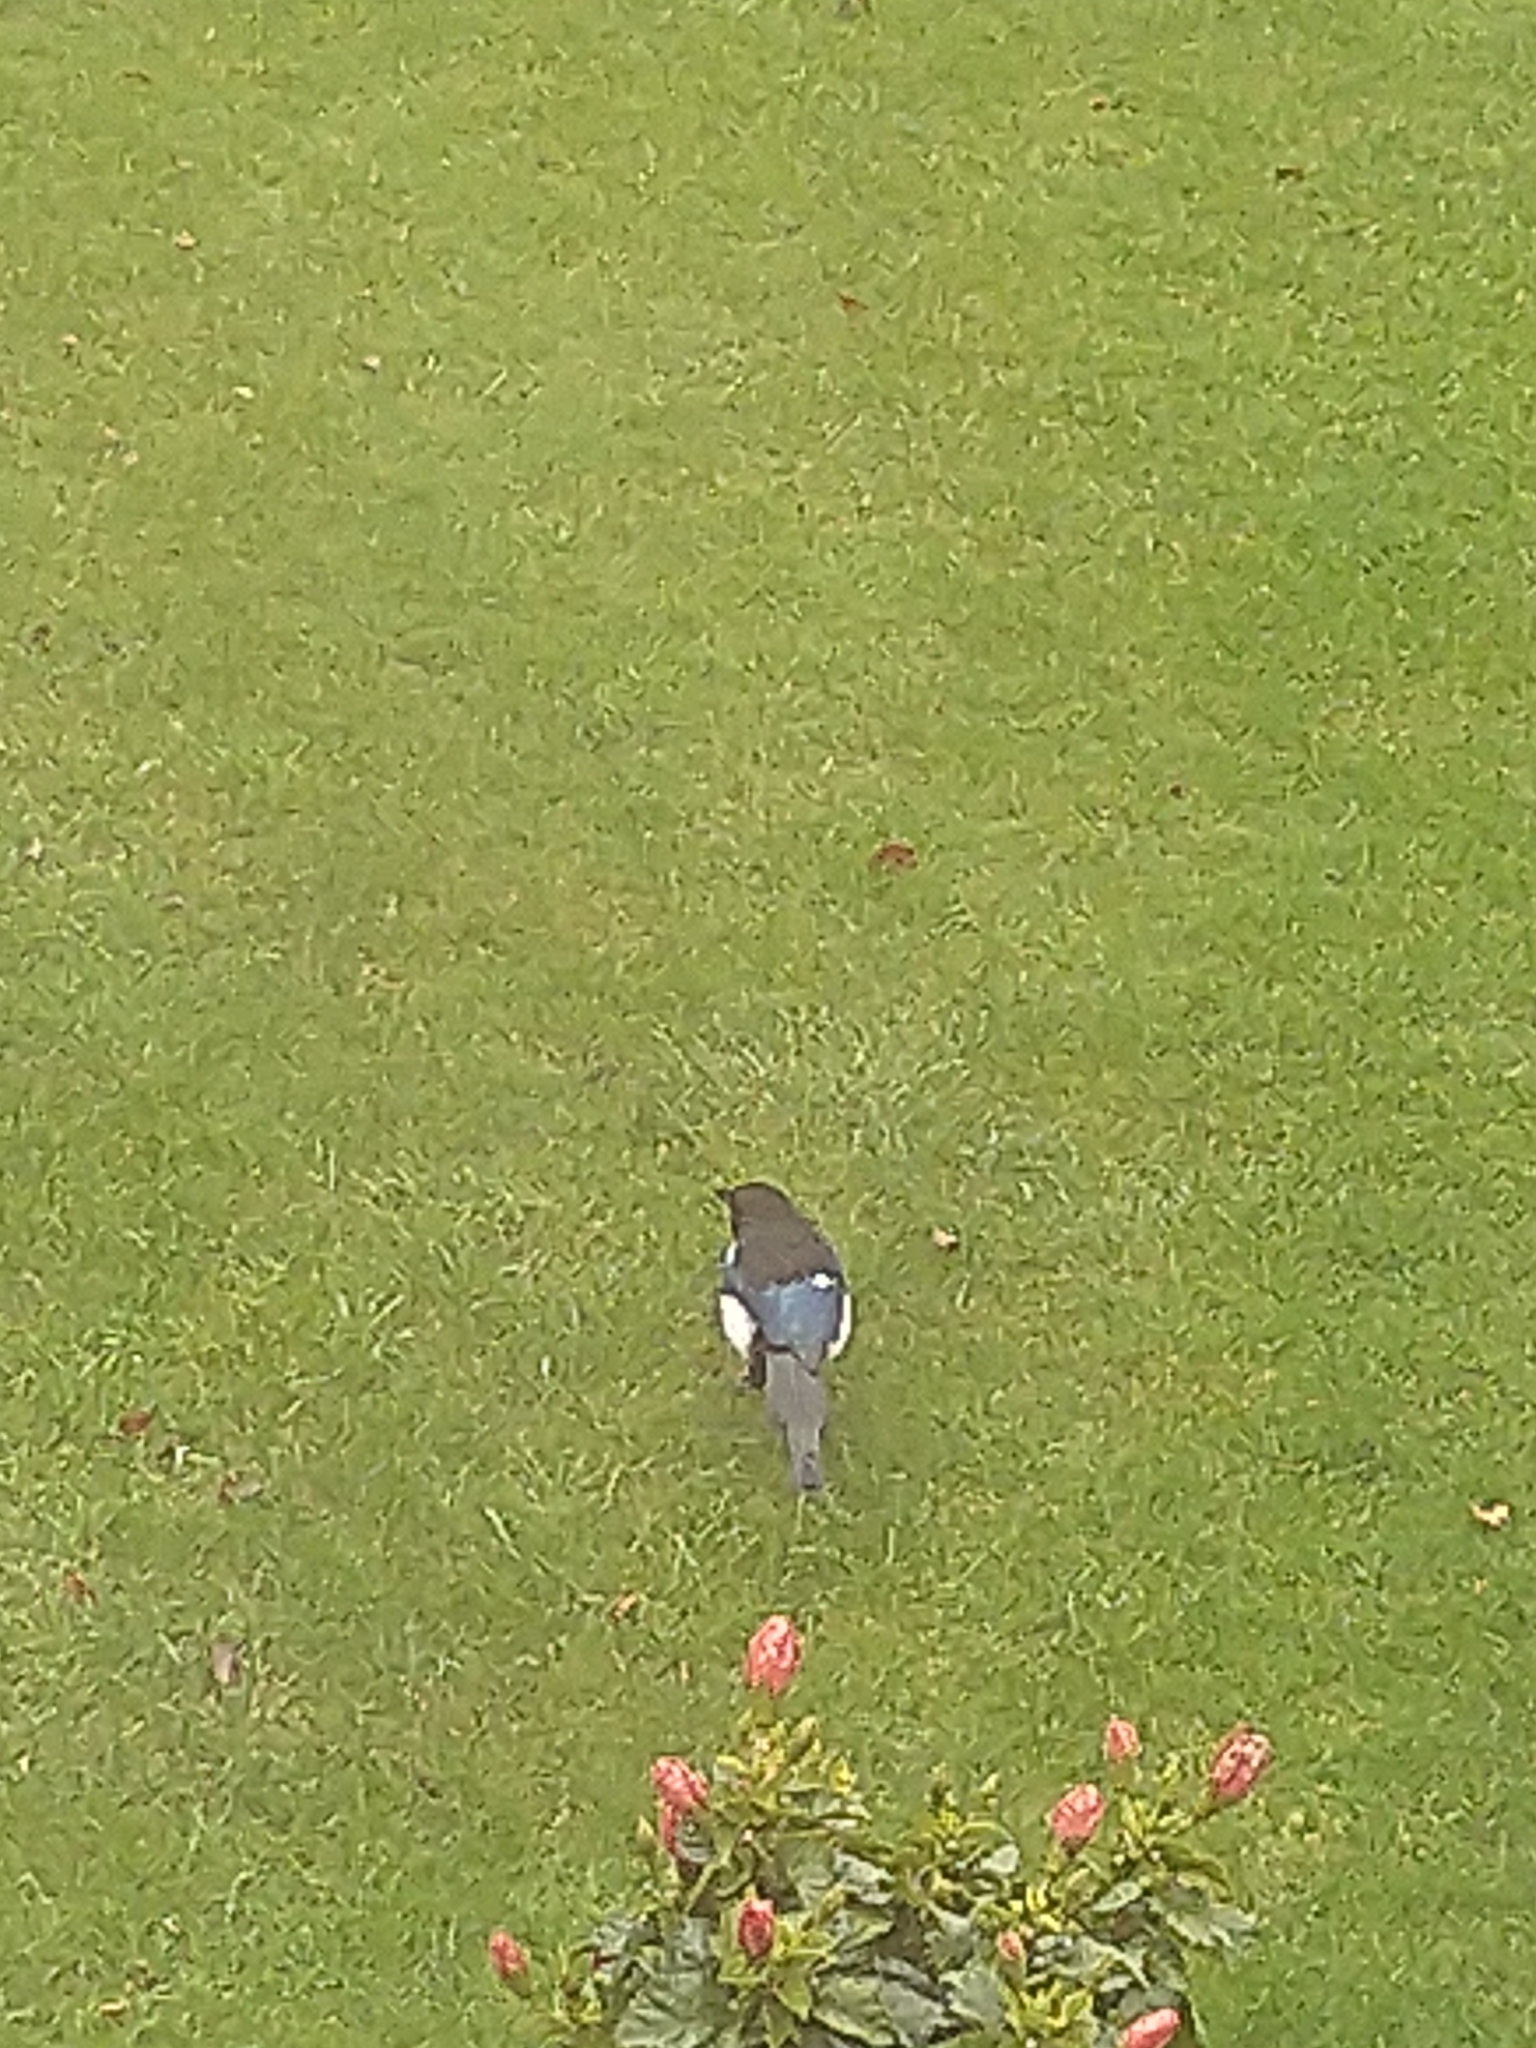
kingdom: Animalia
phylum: Chordata
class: Aves
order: Passeriformes
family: Corvidae
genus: Pica
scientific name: Pica pica
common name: Eurasian magpie
